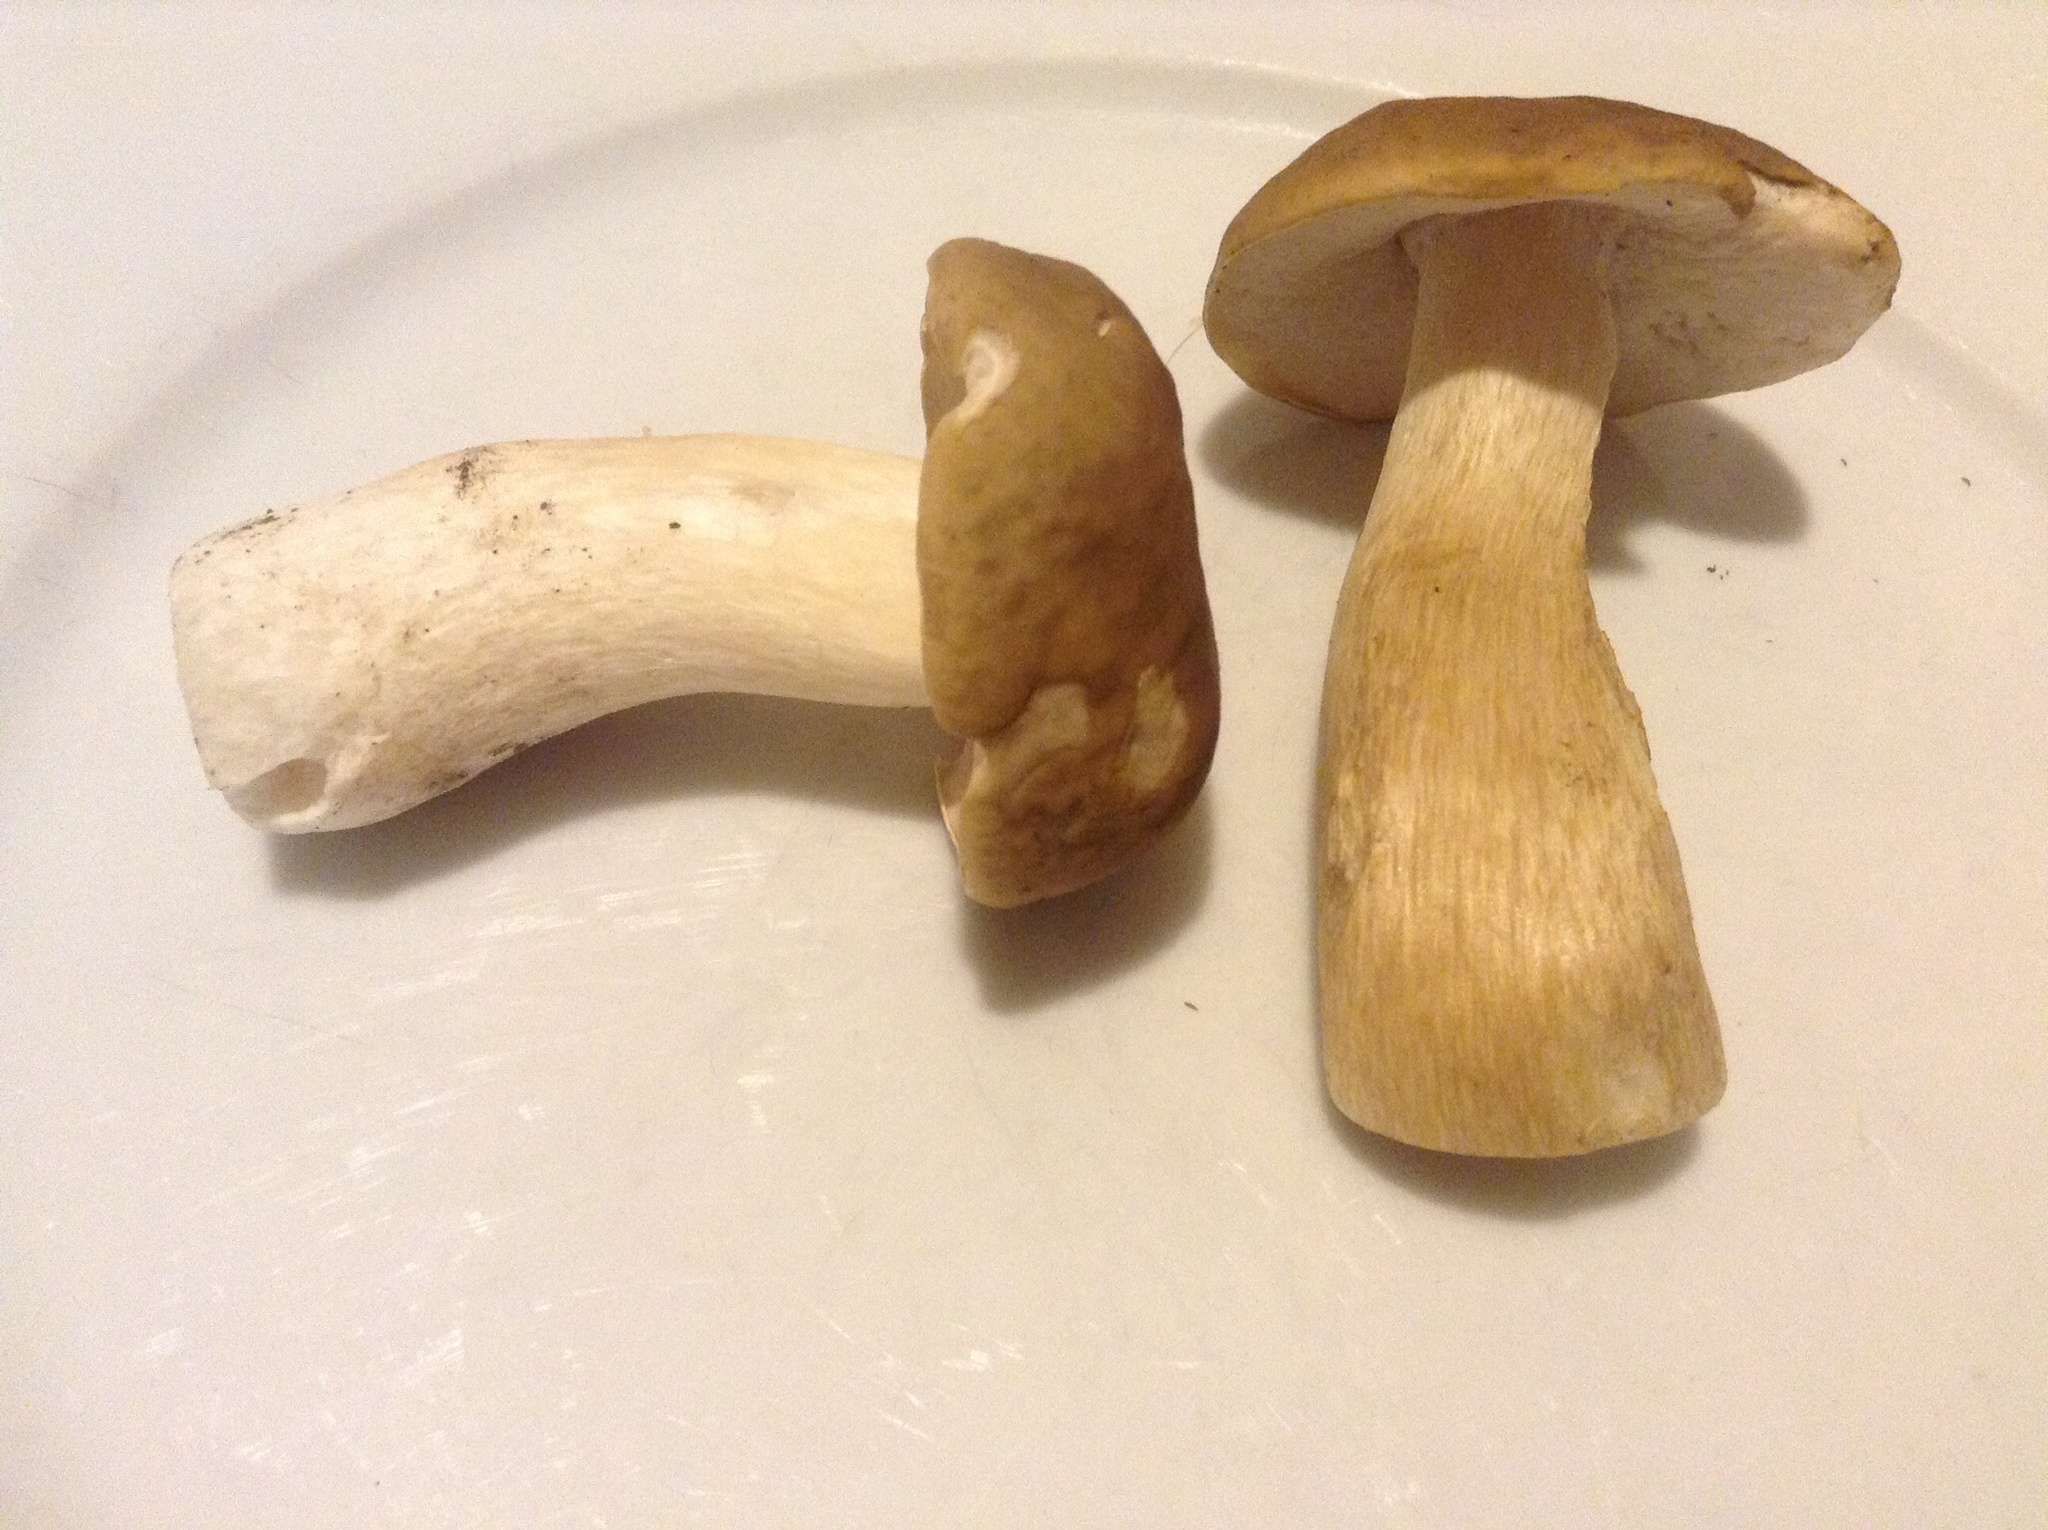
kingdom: Fungi
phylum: Basidiomycota
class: Agaricomycetes
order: Boletales
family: Boletaceae
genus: Boletus
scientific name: Boletus nobilis
